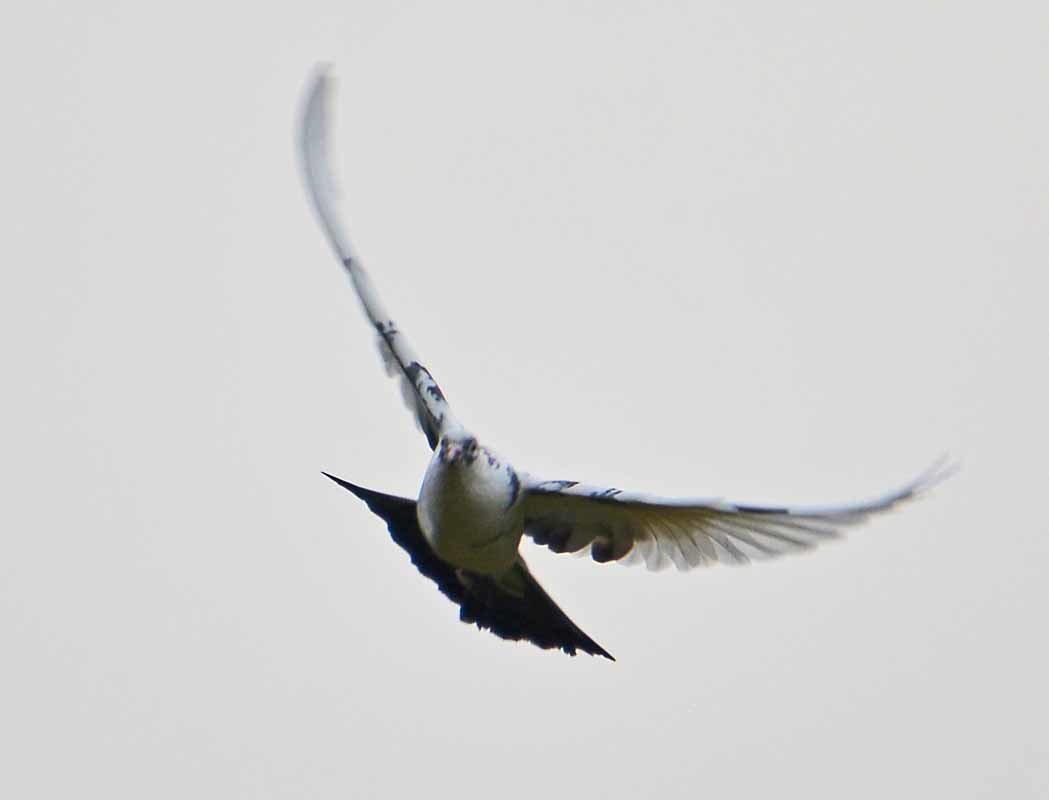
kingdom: Animalia
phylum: Chordata
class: Aves
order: Columbiformes
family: Columbidae
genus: Columba
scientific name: Columba livia
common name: Rock pigeon
